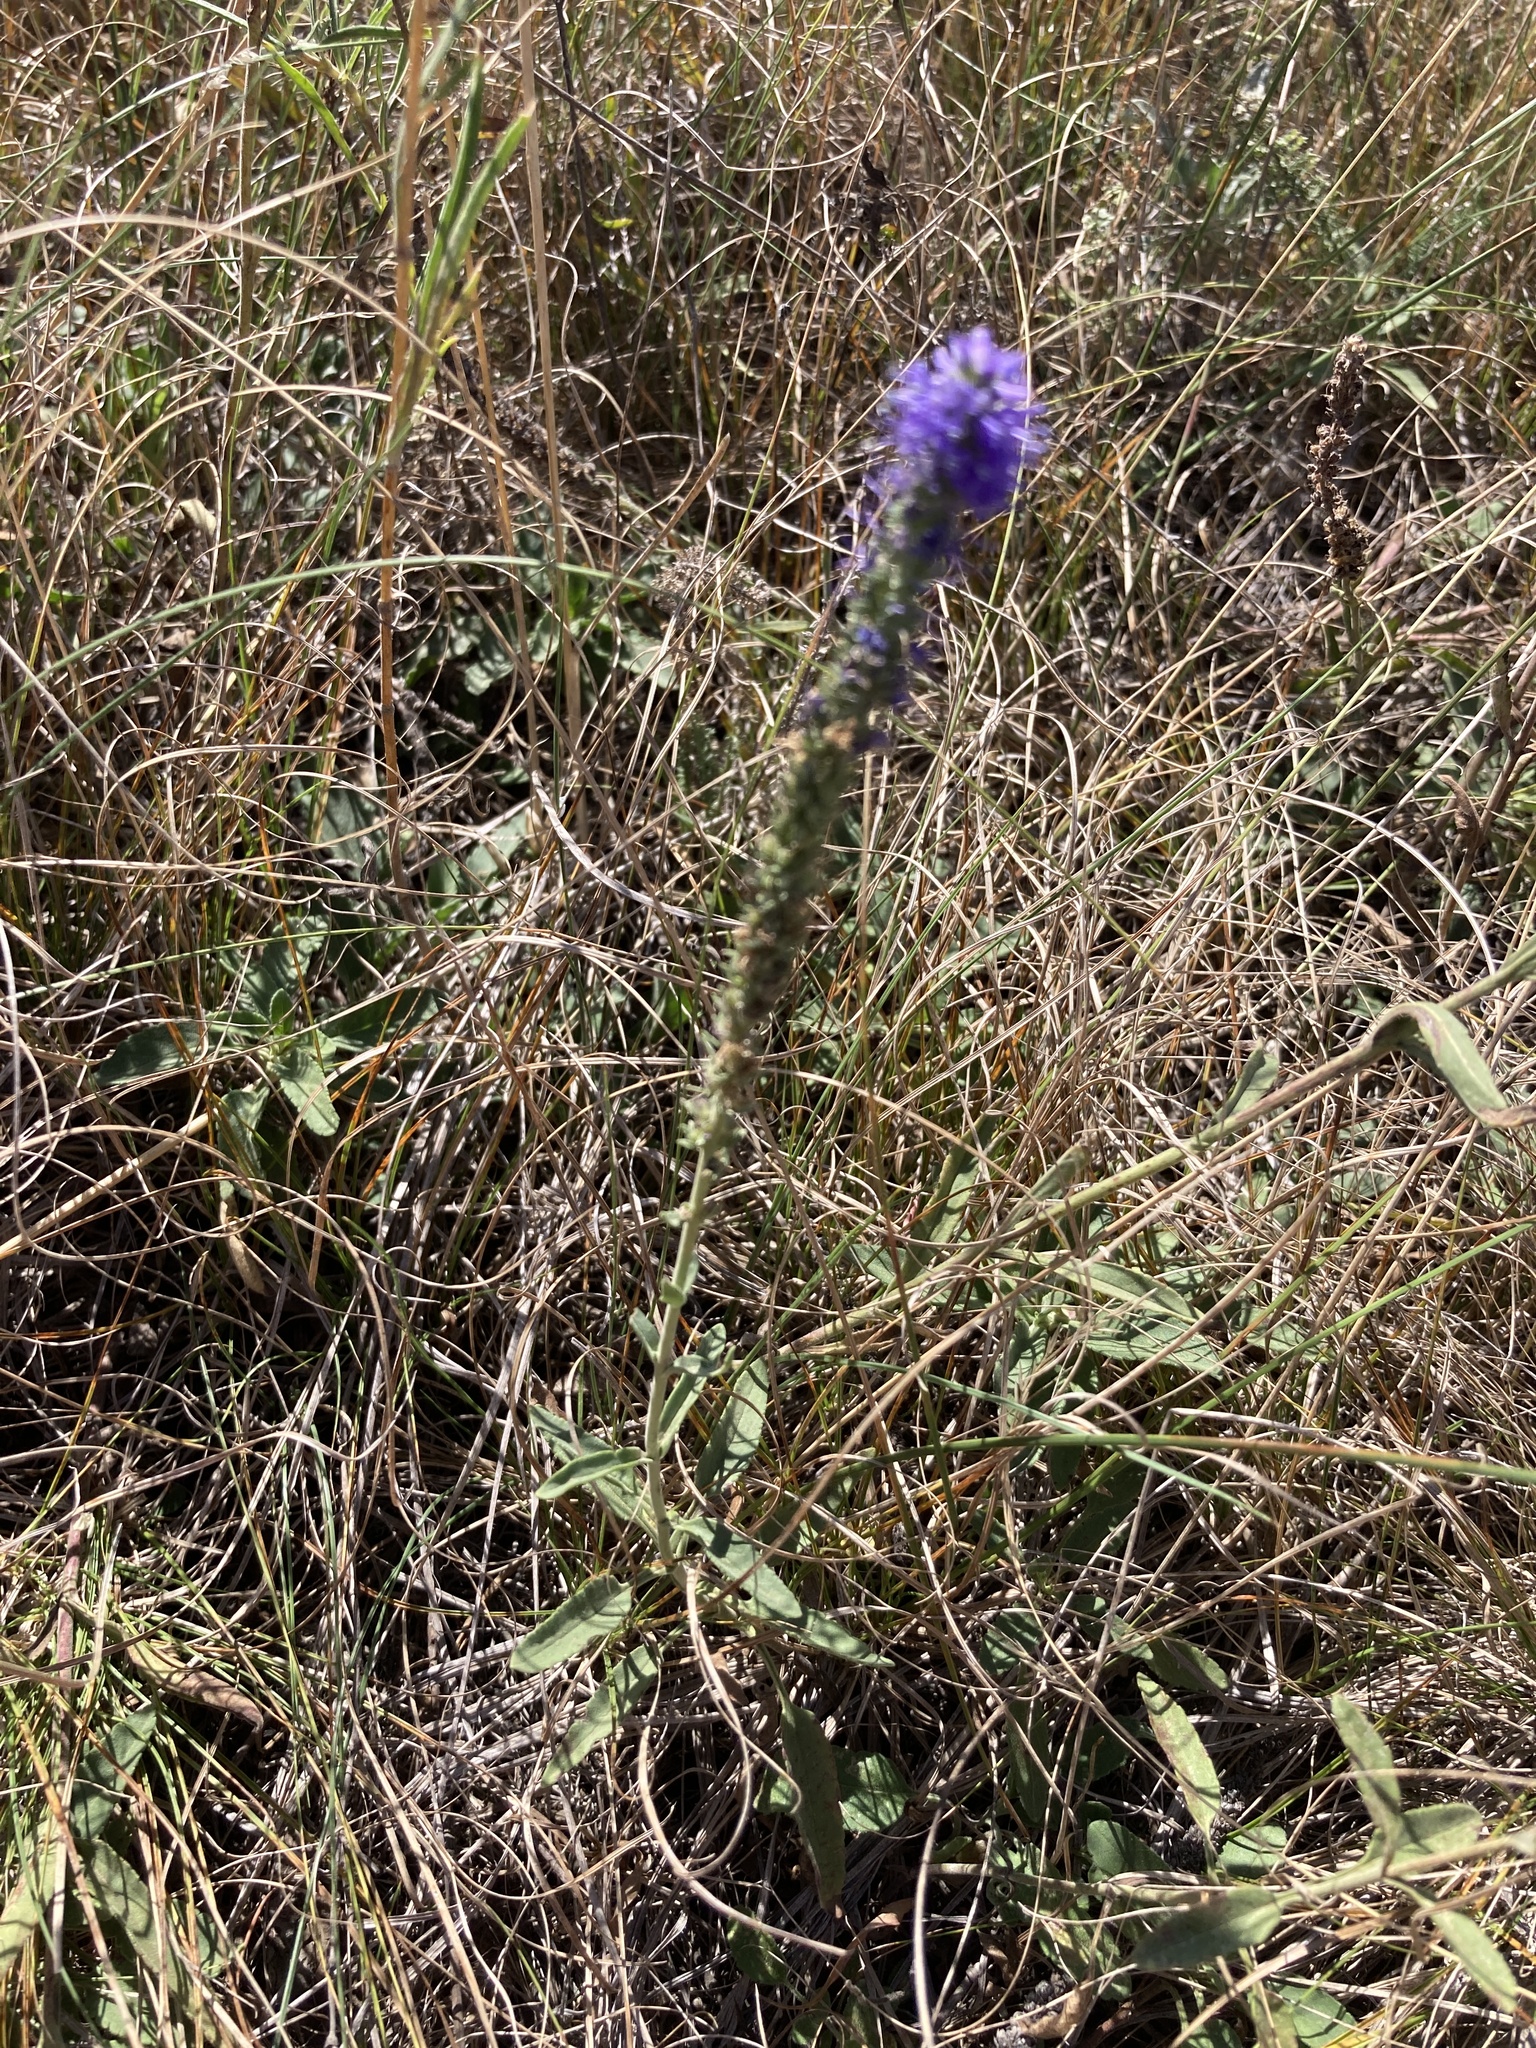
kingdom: Plantae
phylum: Tracheophyta
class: Magnoliopsida
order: Lamiales
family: Plantaginaceae
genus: Veronica
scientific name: Veronica spicata
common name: Spiked speedwell
